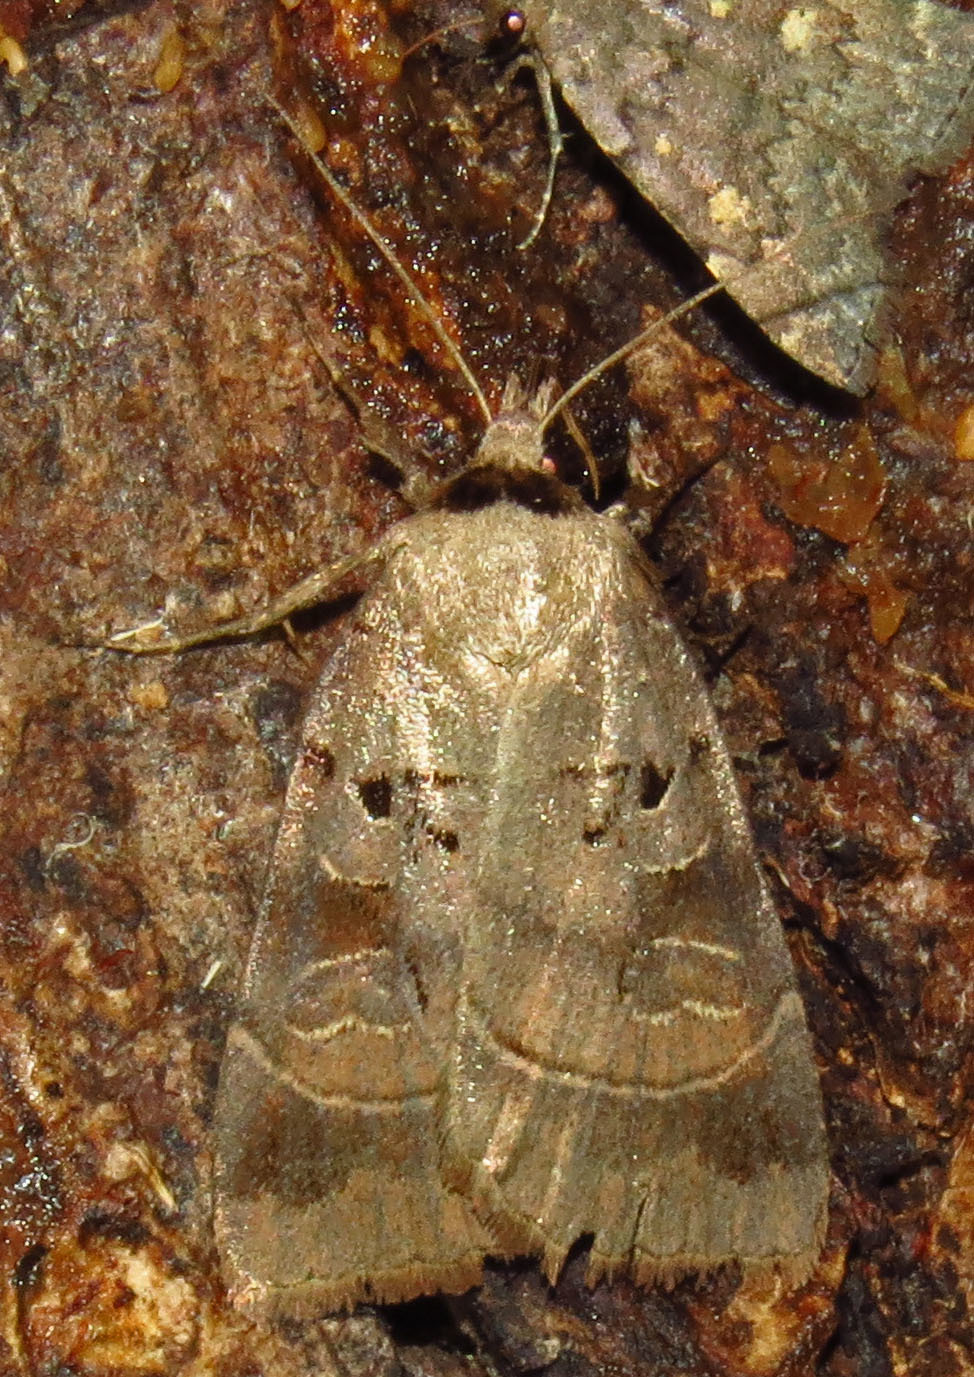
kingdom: Animalia
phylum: Arthropoda
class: Insecta
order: Lepidoptera
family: Noctuidae
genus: Agnorisma
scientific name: Agnorisma badinodis
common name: Pale-banded dart
